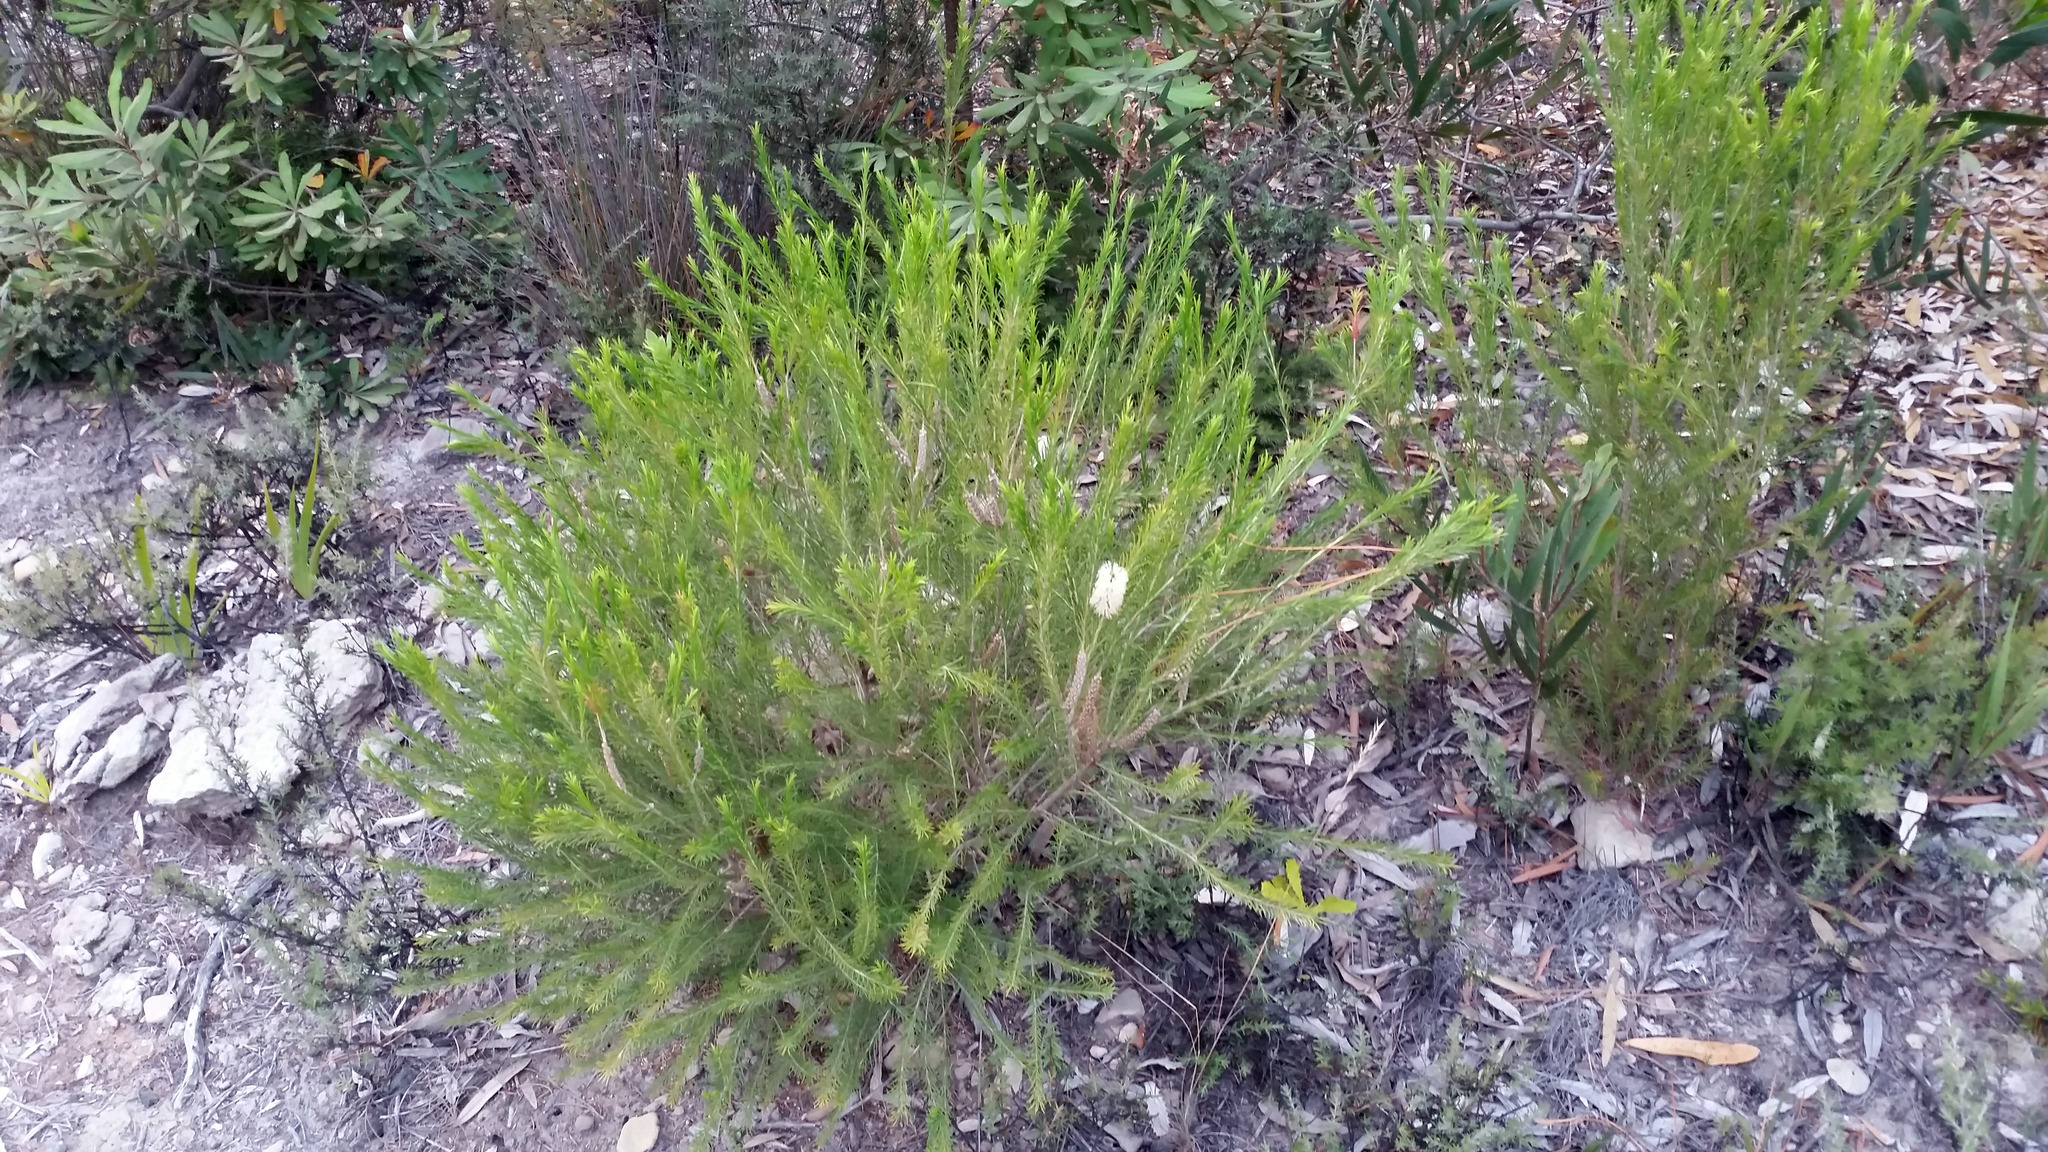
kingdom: Plantae
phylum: Tracheophyta
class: Magnoliopsida
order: Myrtales
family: Myrtaceae
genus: Melaleuca
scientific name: Melaleuca armillaris
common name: Bracelet honey myrtle
